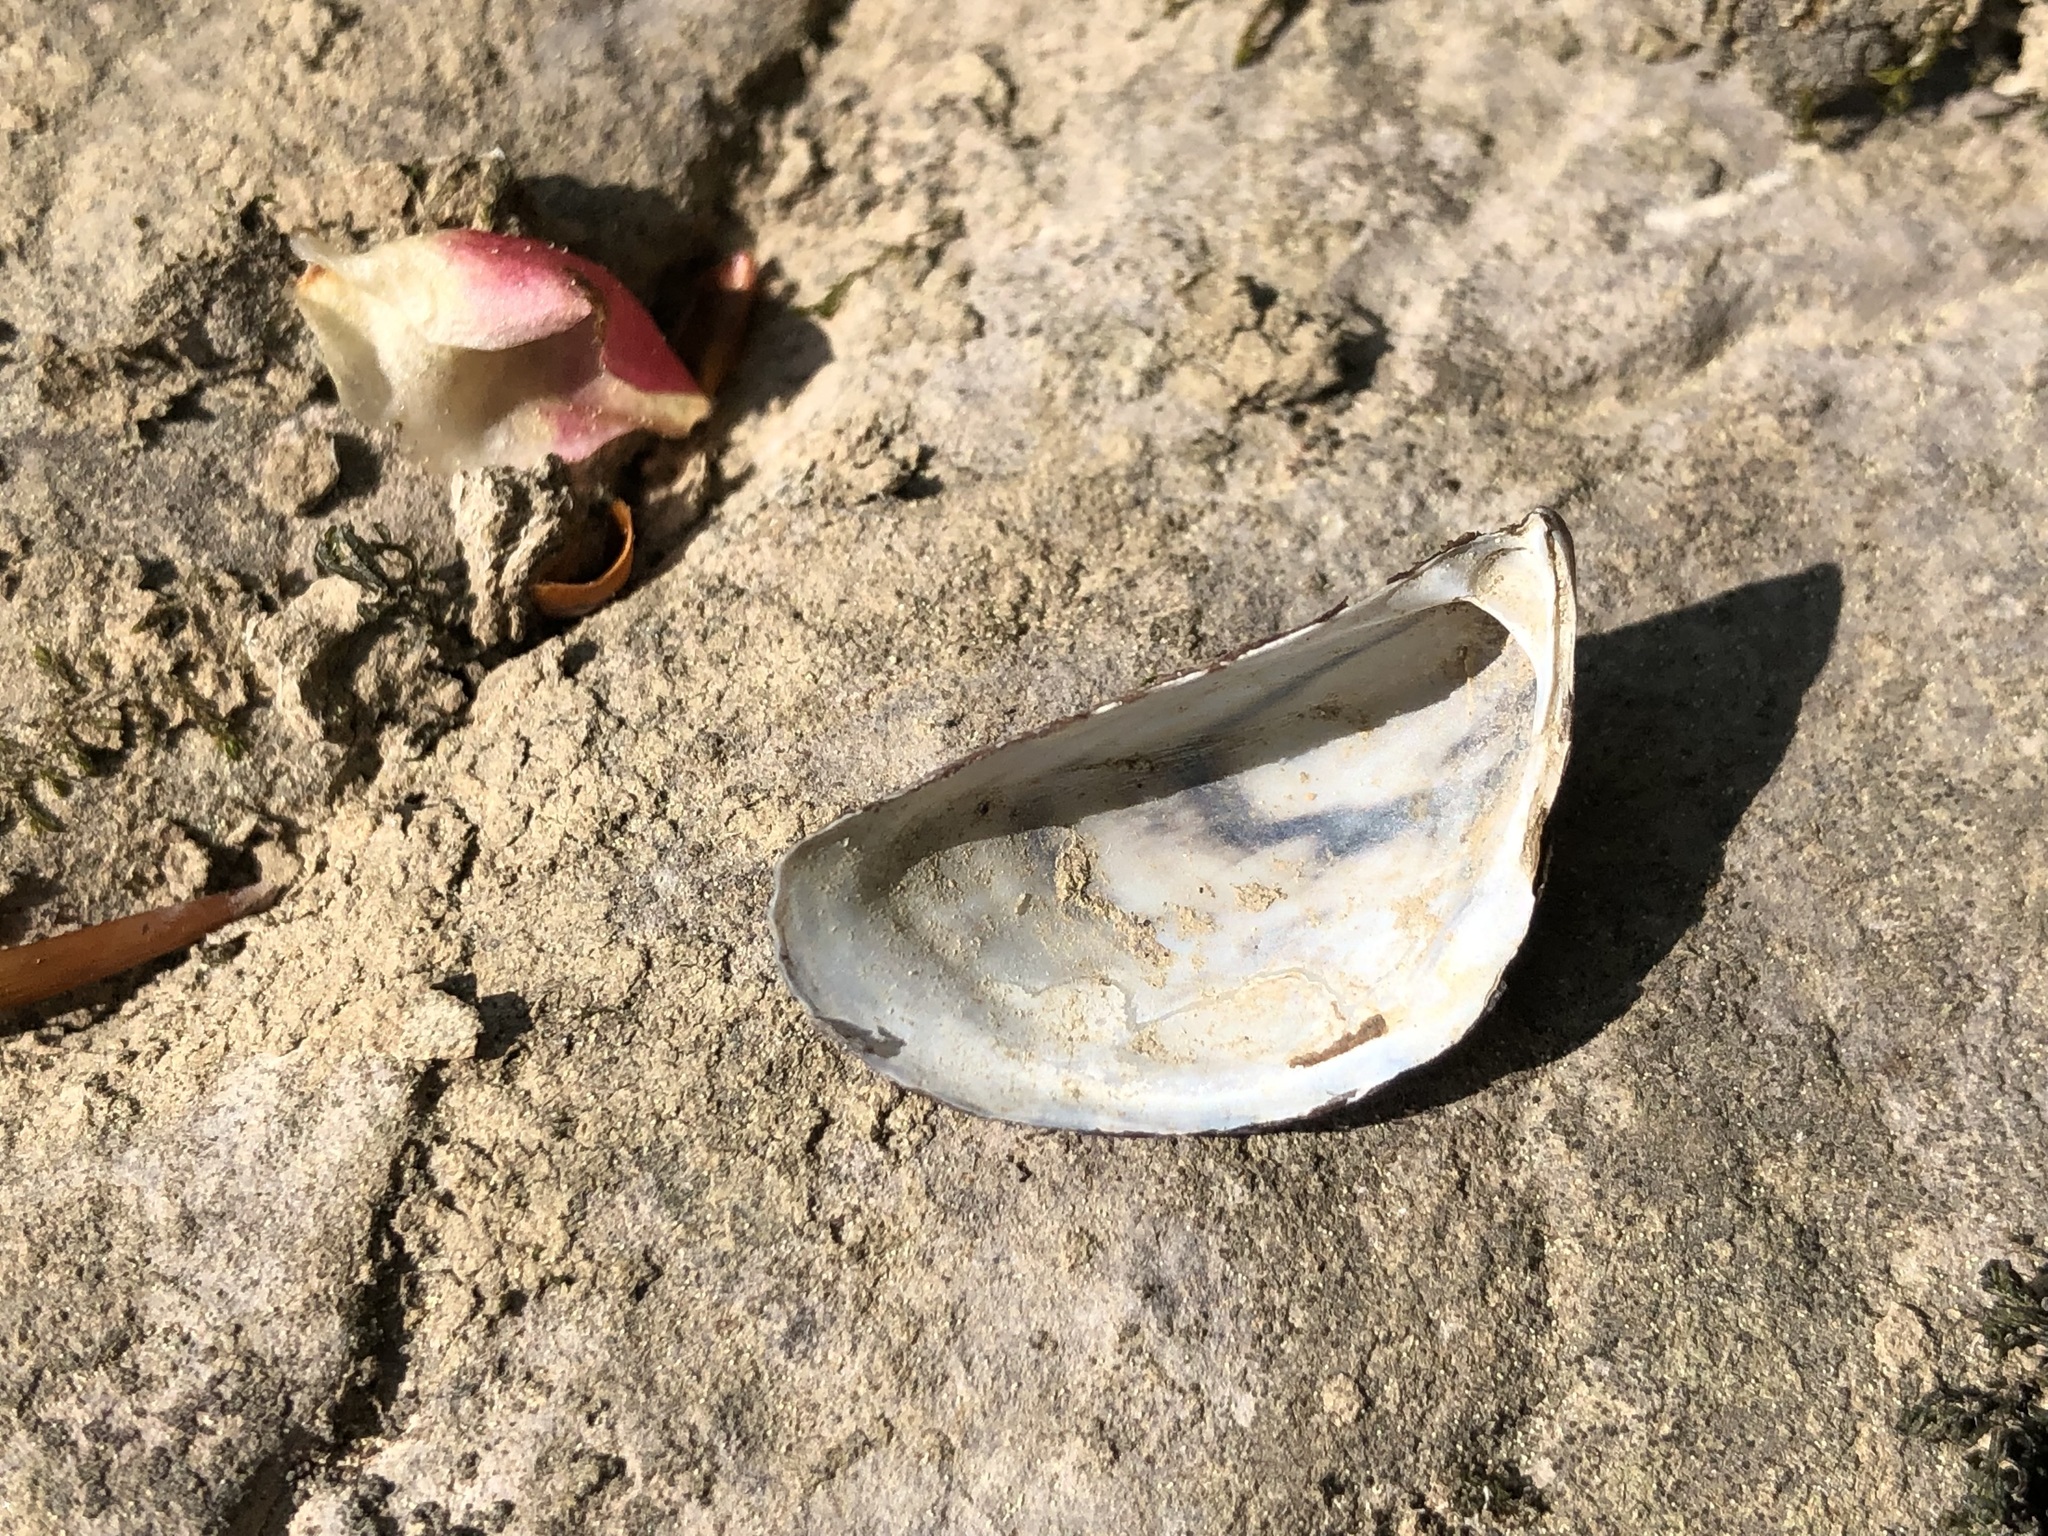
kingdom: Animalia
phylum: Mollusca
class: Bivalvia
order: Myida
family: Dreissenidae
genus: Dreissena
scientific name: Dreissena polymorpha
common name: Zebra mussel
